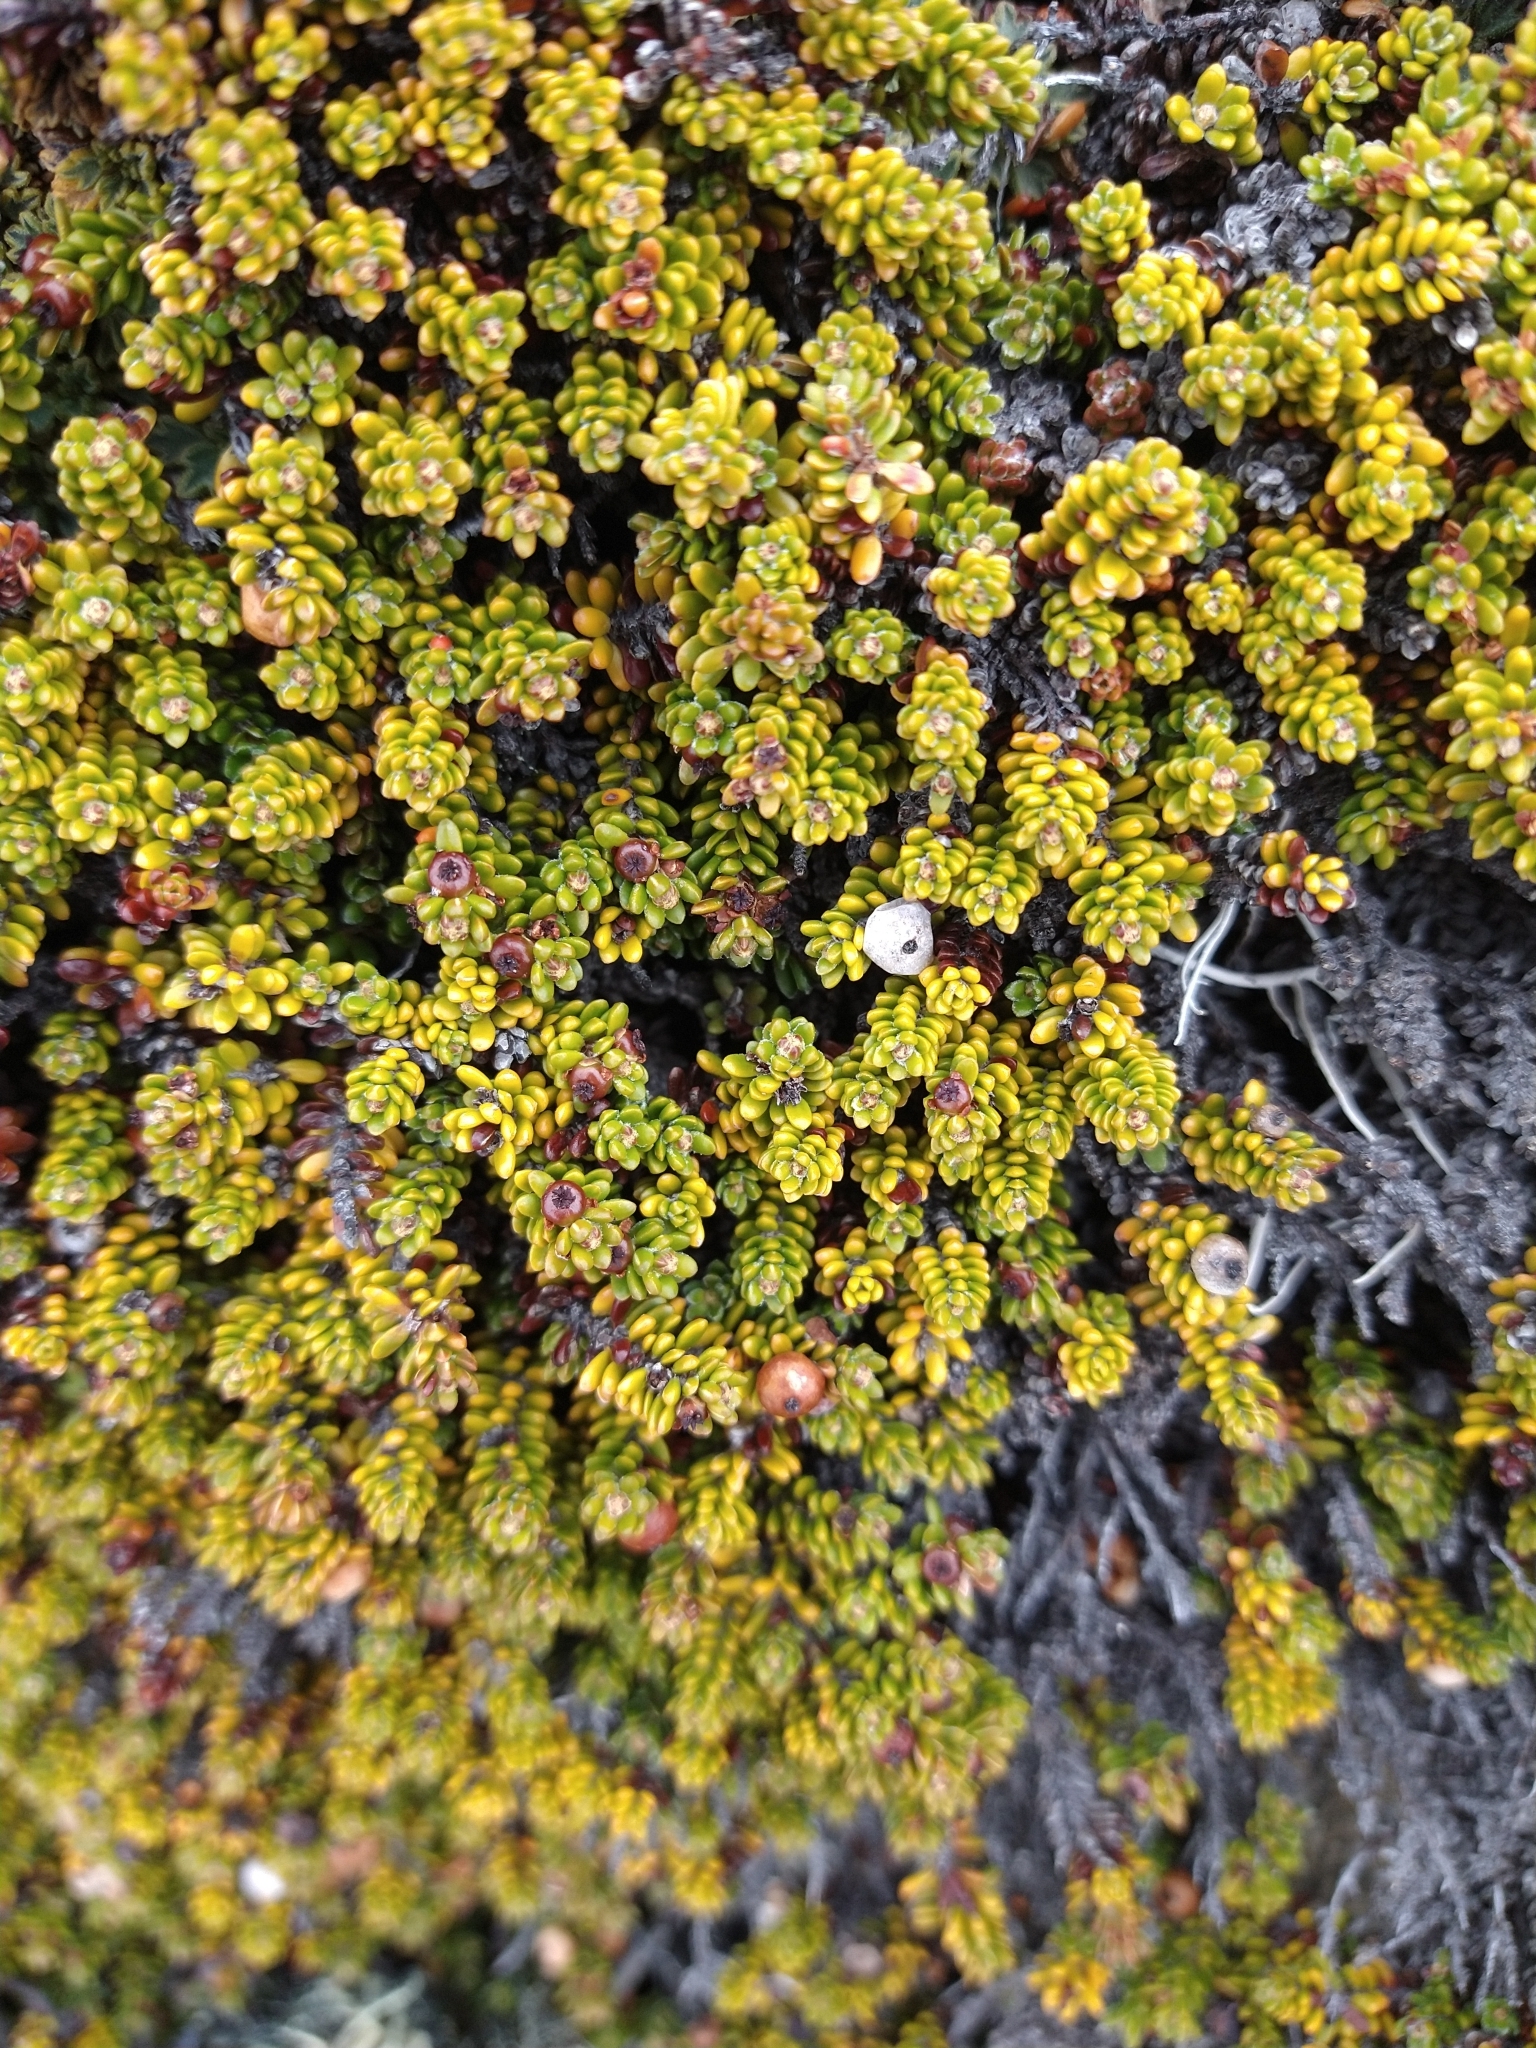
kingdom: Plantae
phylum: Tracheophyta
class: Magnoliopsida
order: Ericales
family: Ericaceae
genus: Empetrum
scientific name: Empetrum rubrum
